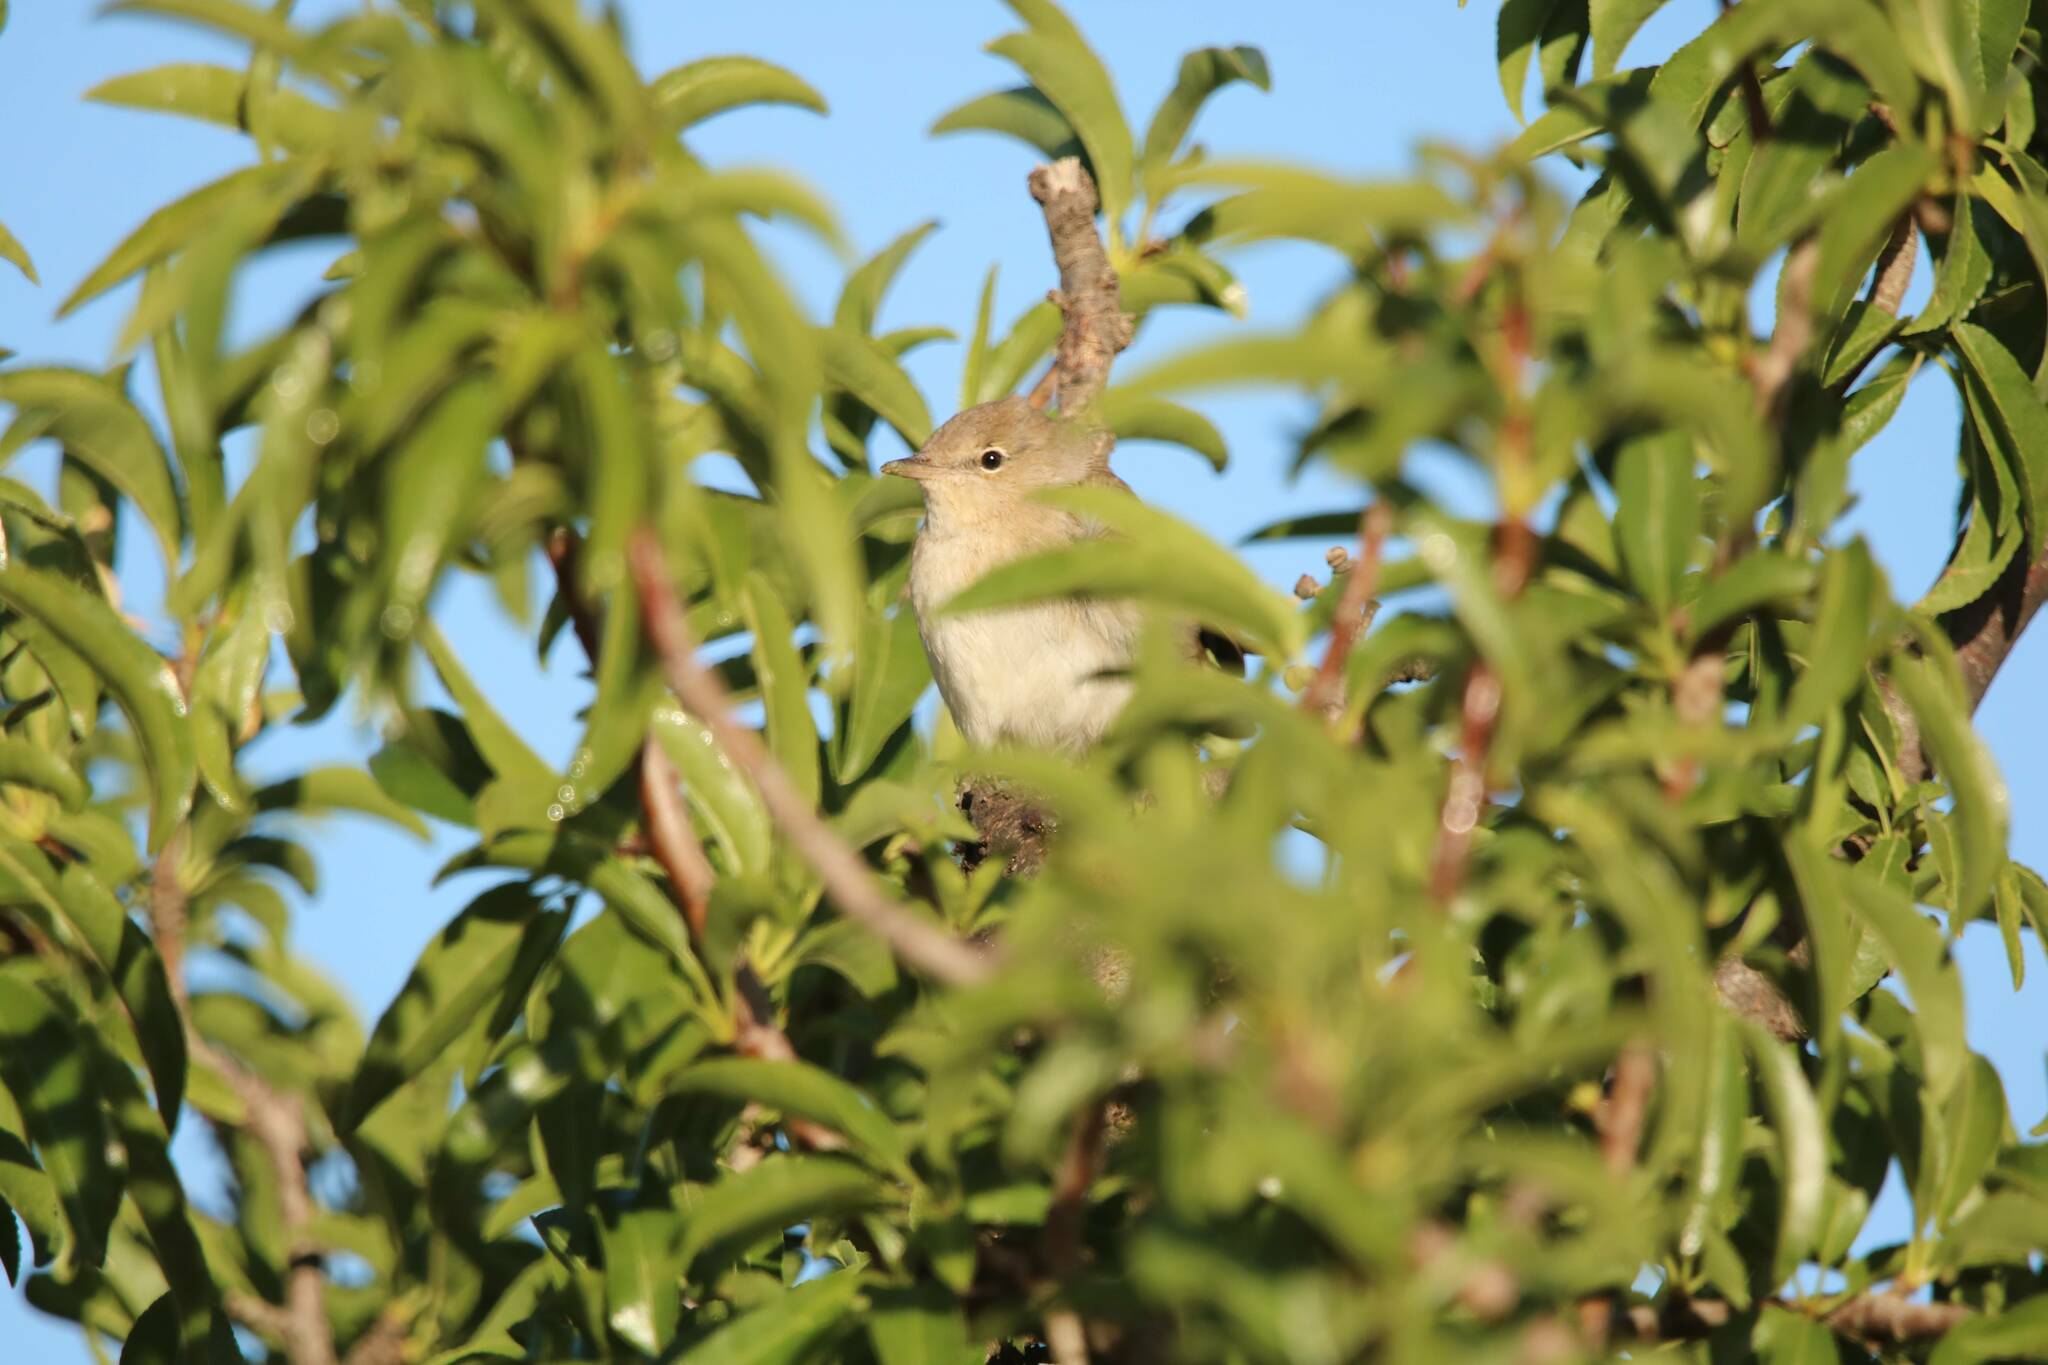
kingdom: Animalia
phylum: Chordata
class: Aves
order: Passeriformes
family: Sylviidae
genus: Sylvia
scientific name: Sylvia borin
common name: Garden warbler
